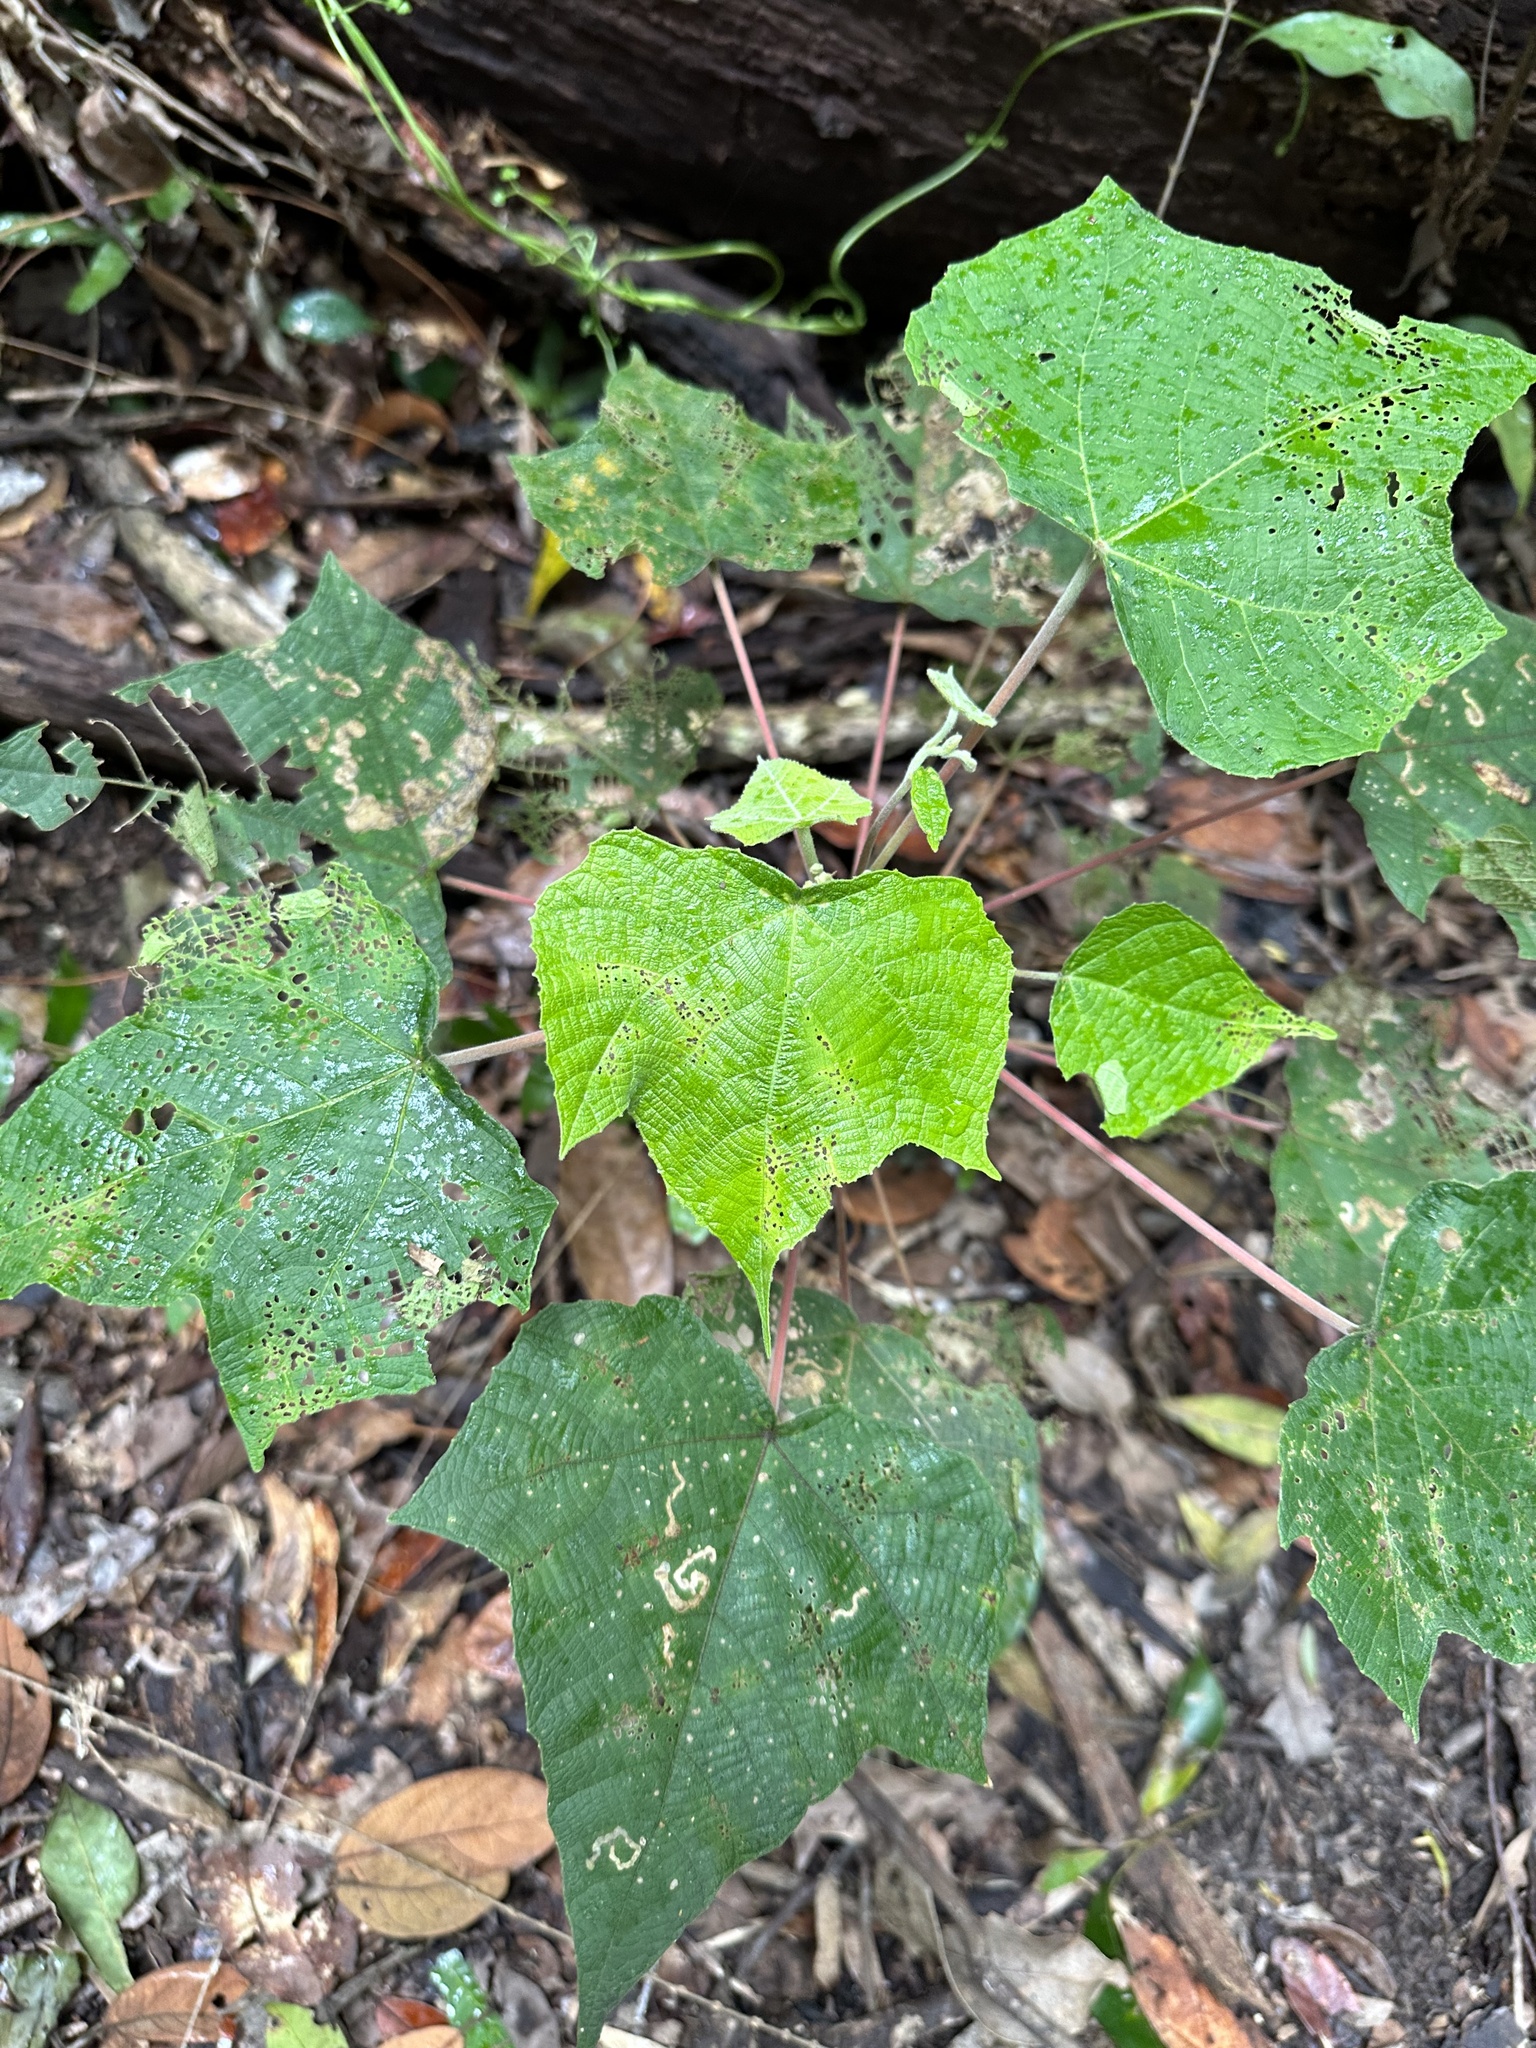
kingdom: Plantae
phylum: Tracheophyta
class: Magnoliopsida
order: Malvales
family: Malvaceae
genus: Urena
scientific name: Urena lobata
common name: Caesarweed
